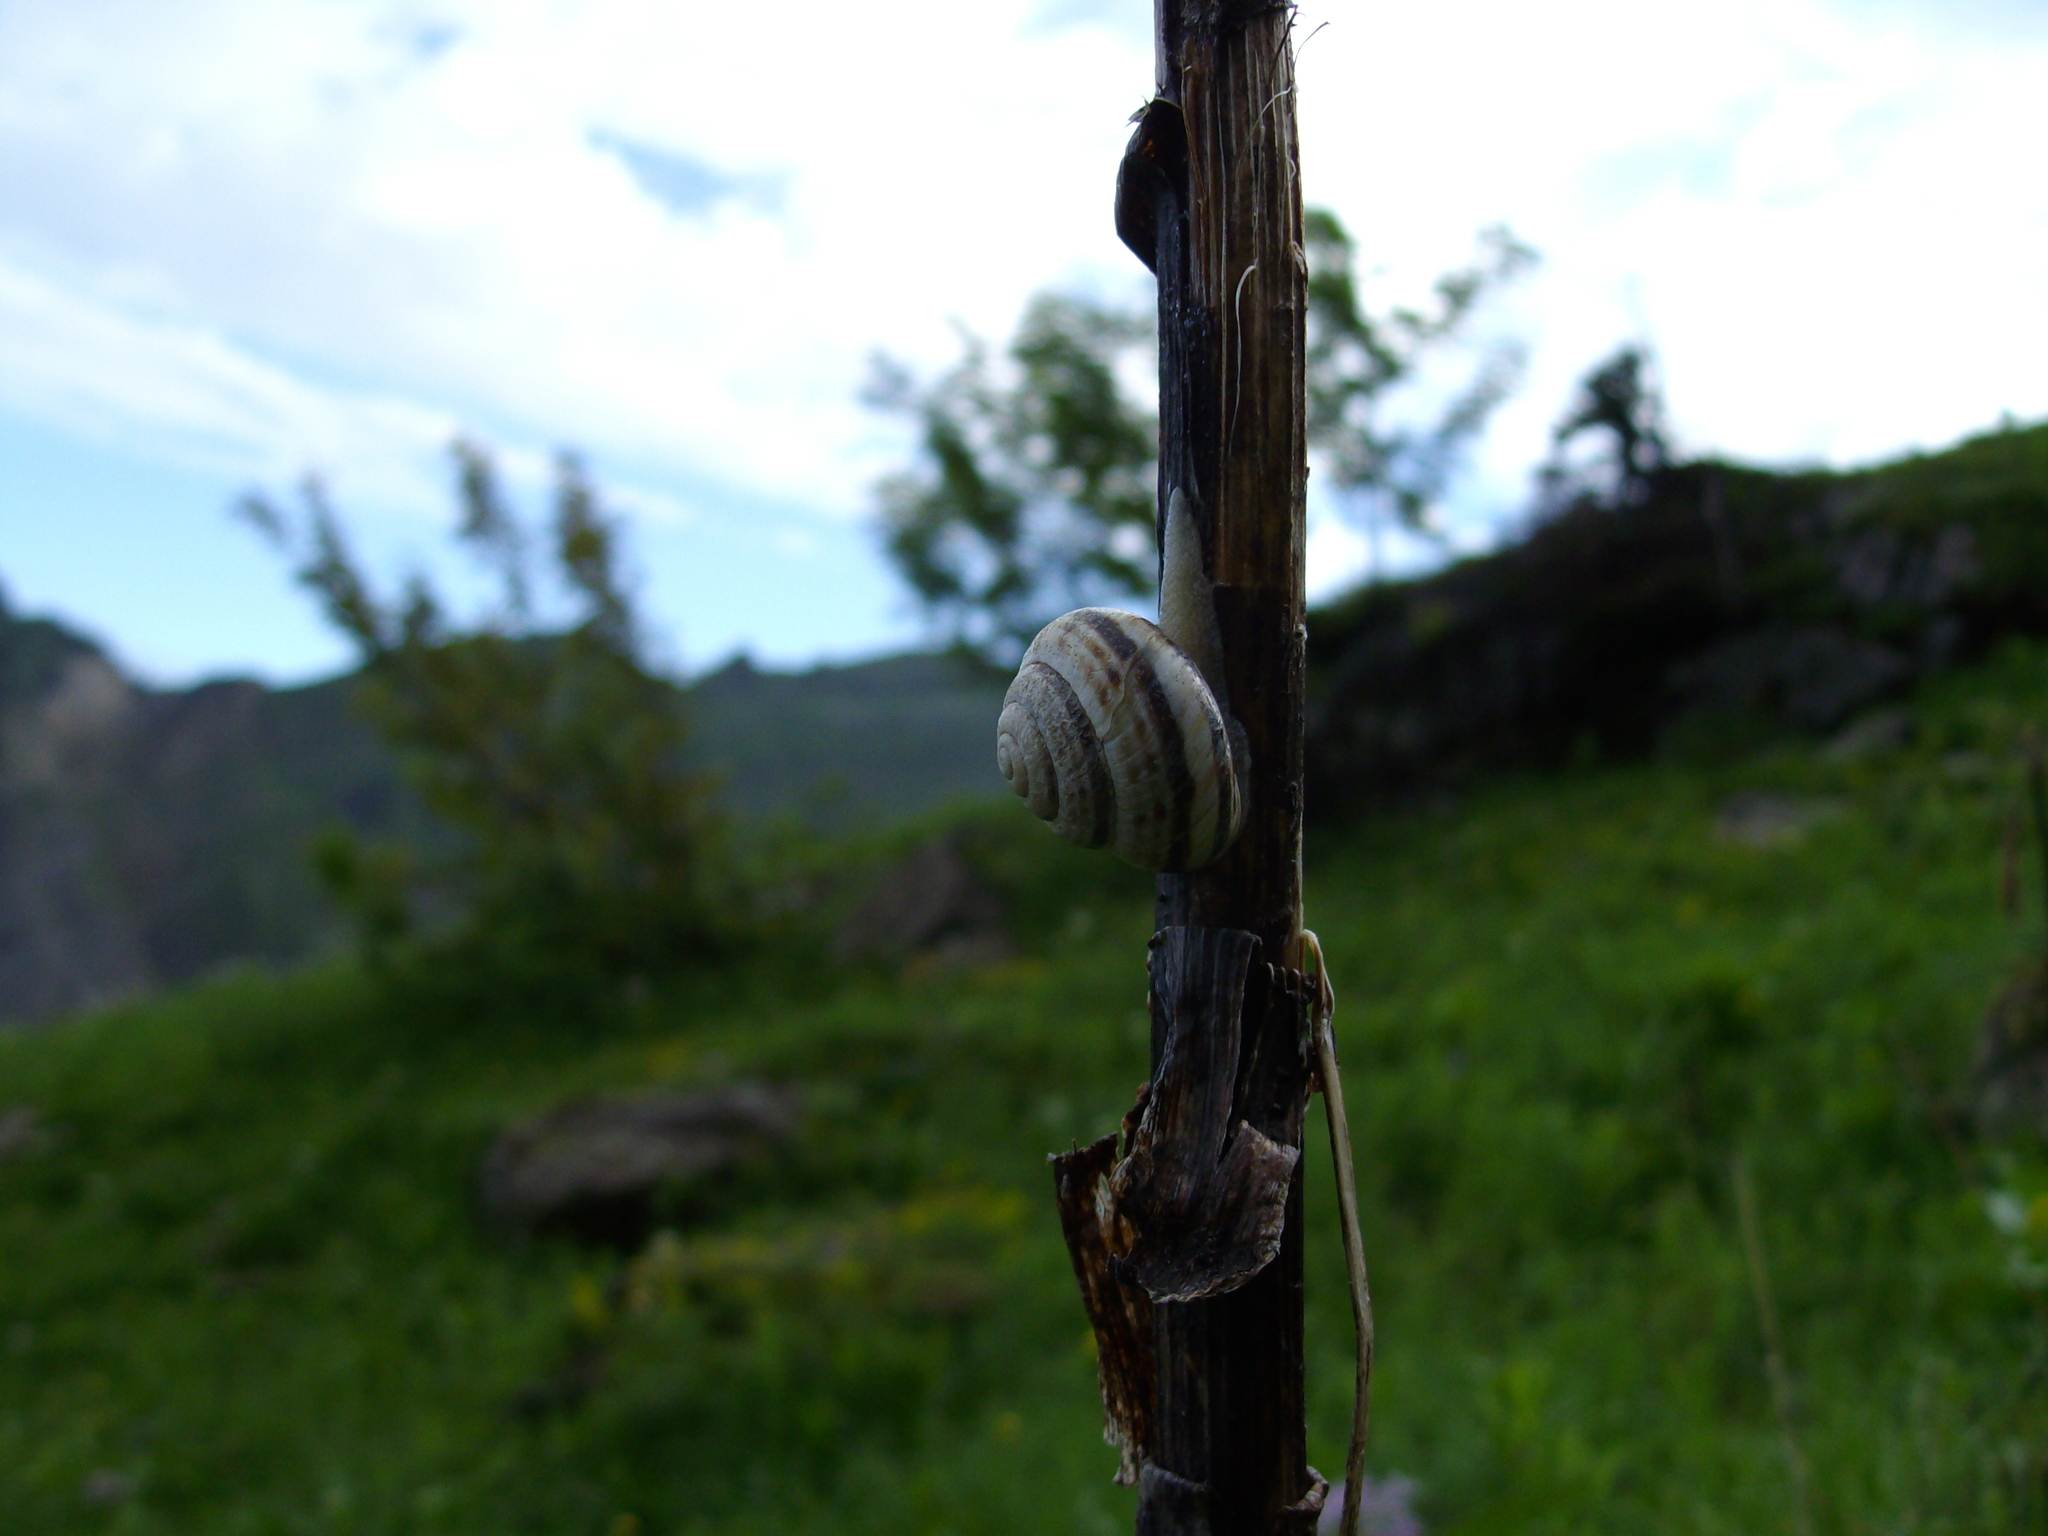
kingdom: Animalia
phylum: Mollusca
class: Gastropoda
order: Stylommatophora
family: Helicidae
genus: Macularia
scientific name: Macularia sylvatica
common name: Hélice sylvatique
